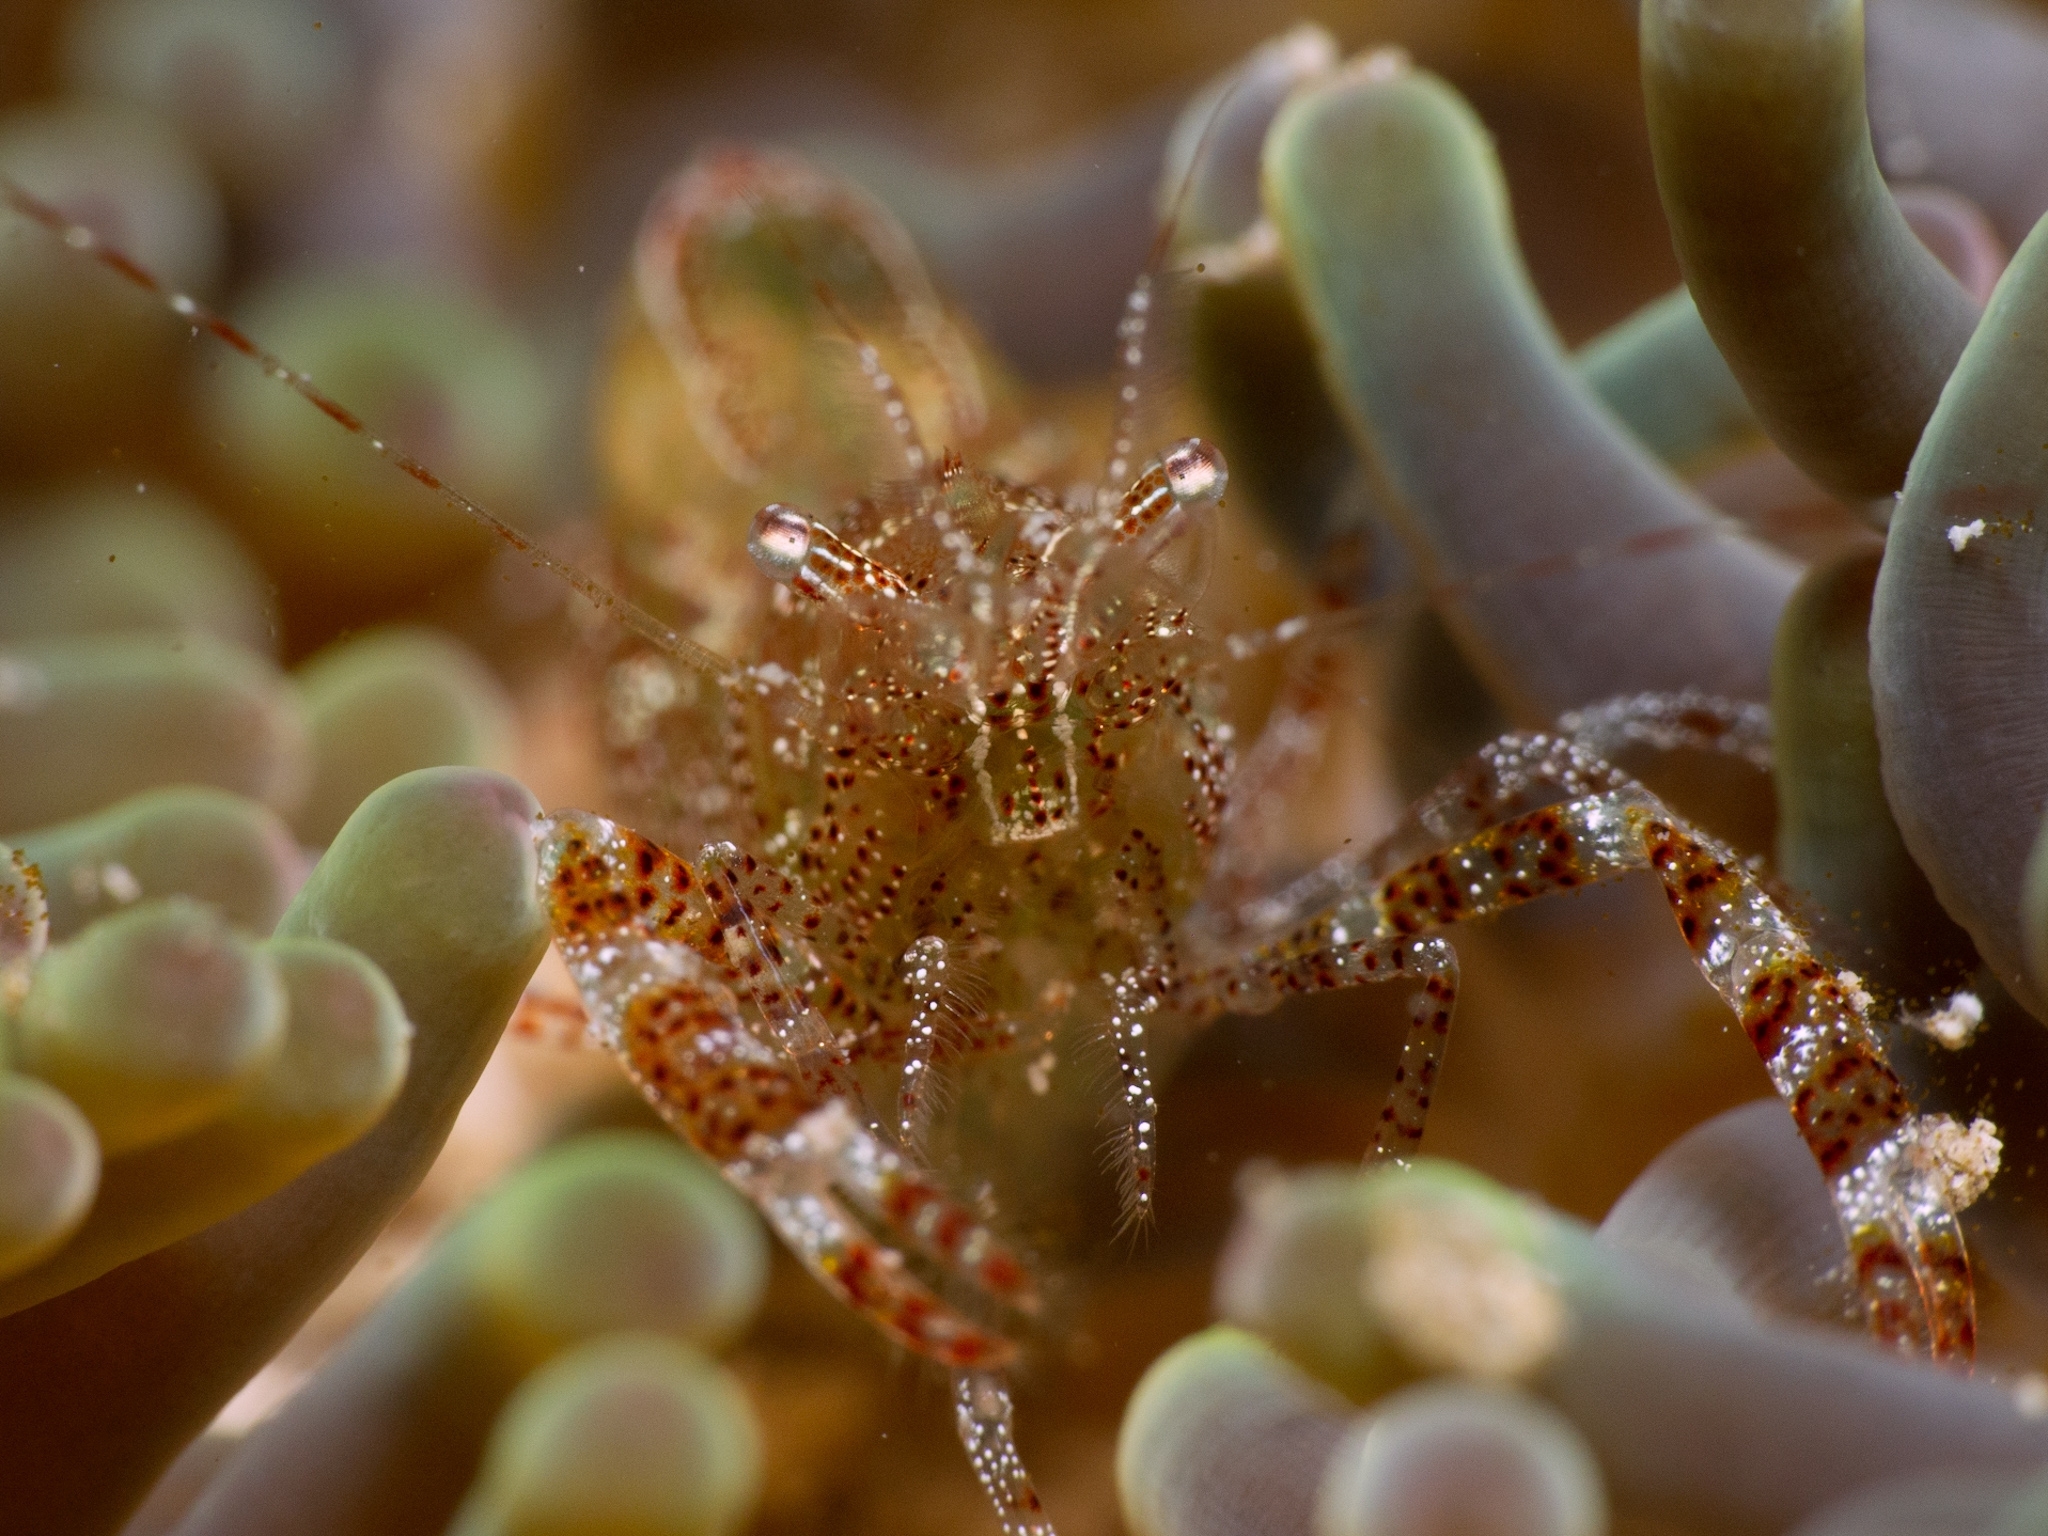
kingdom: Animalia
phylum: Arthropoda
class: Malacostraca
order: Decapoda
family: Palaemonidae
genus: Periclimenes
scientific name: Periclimenes rathbunae
